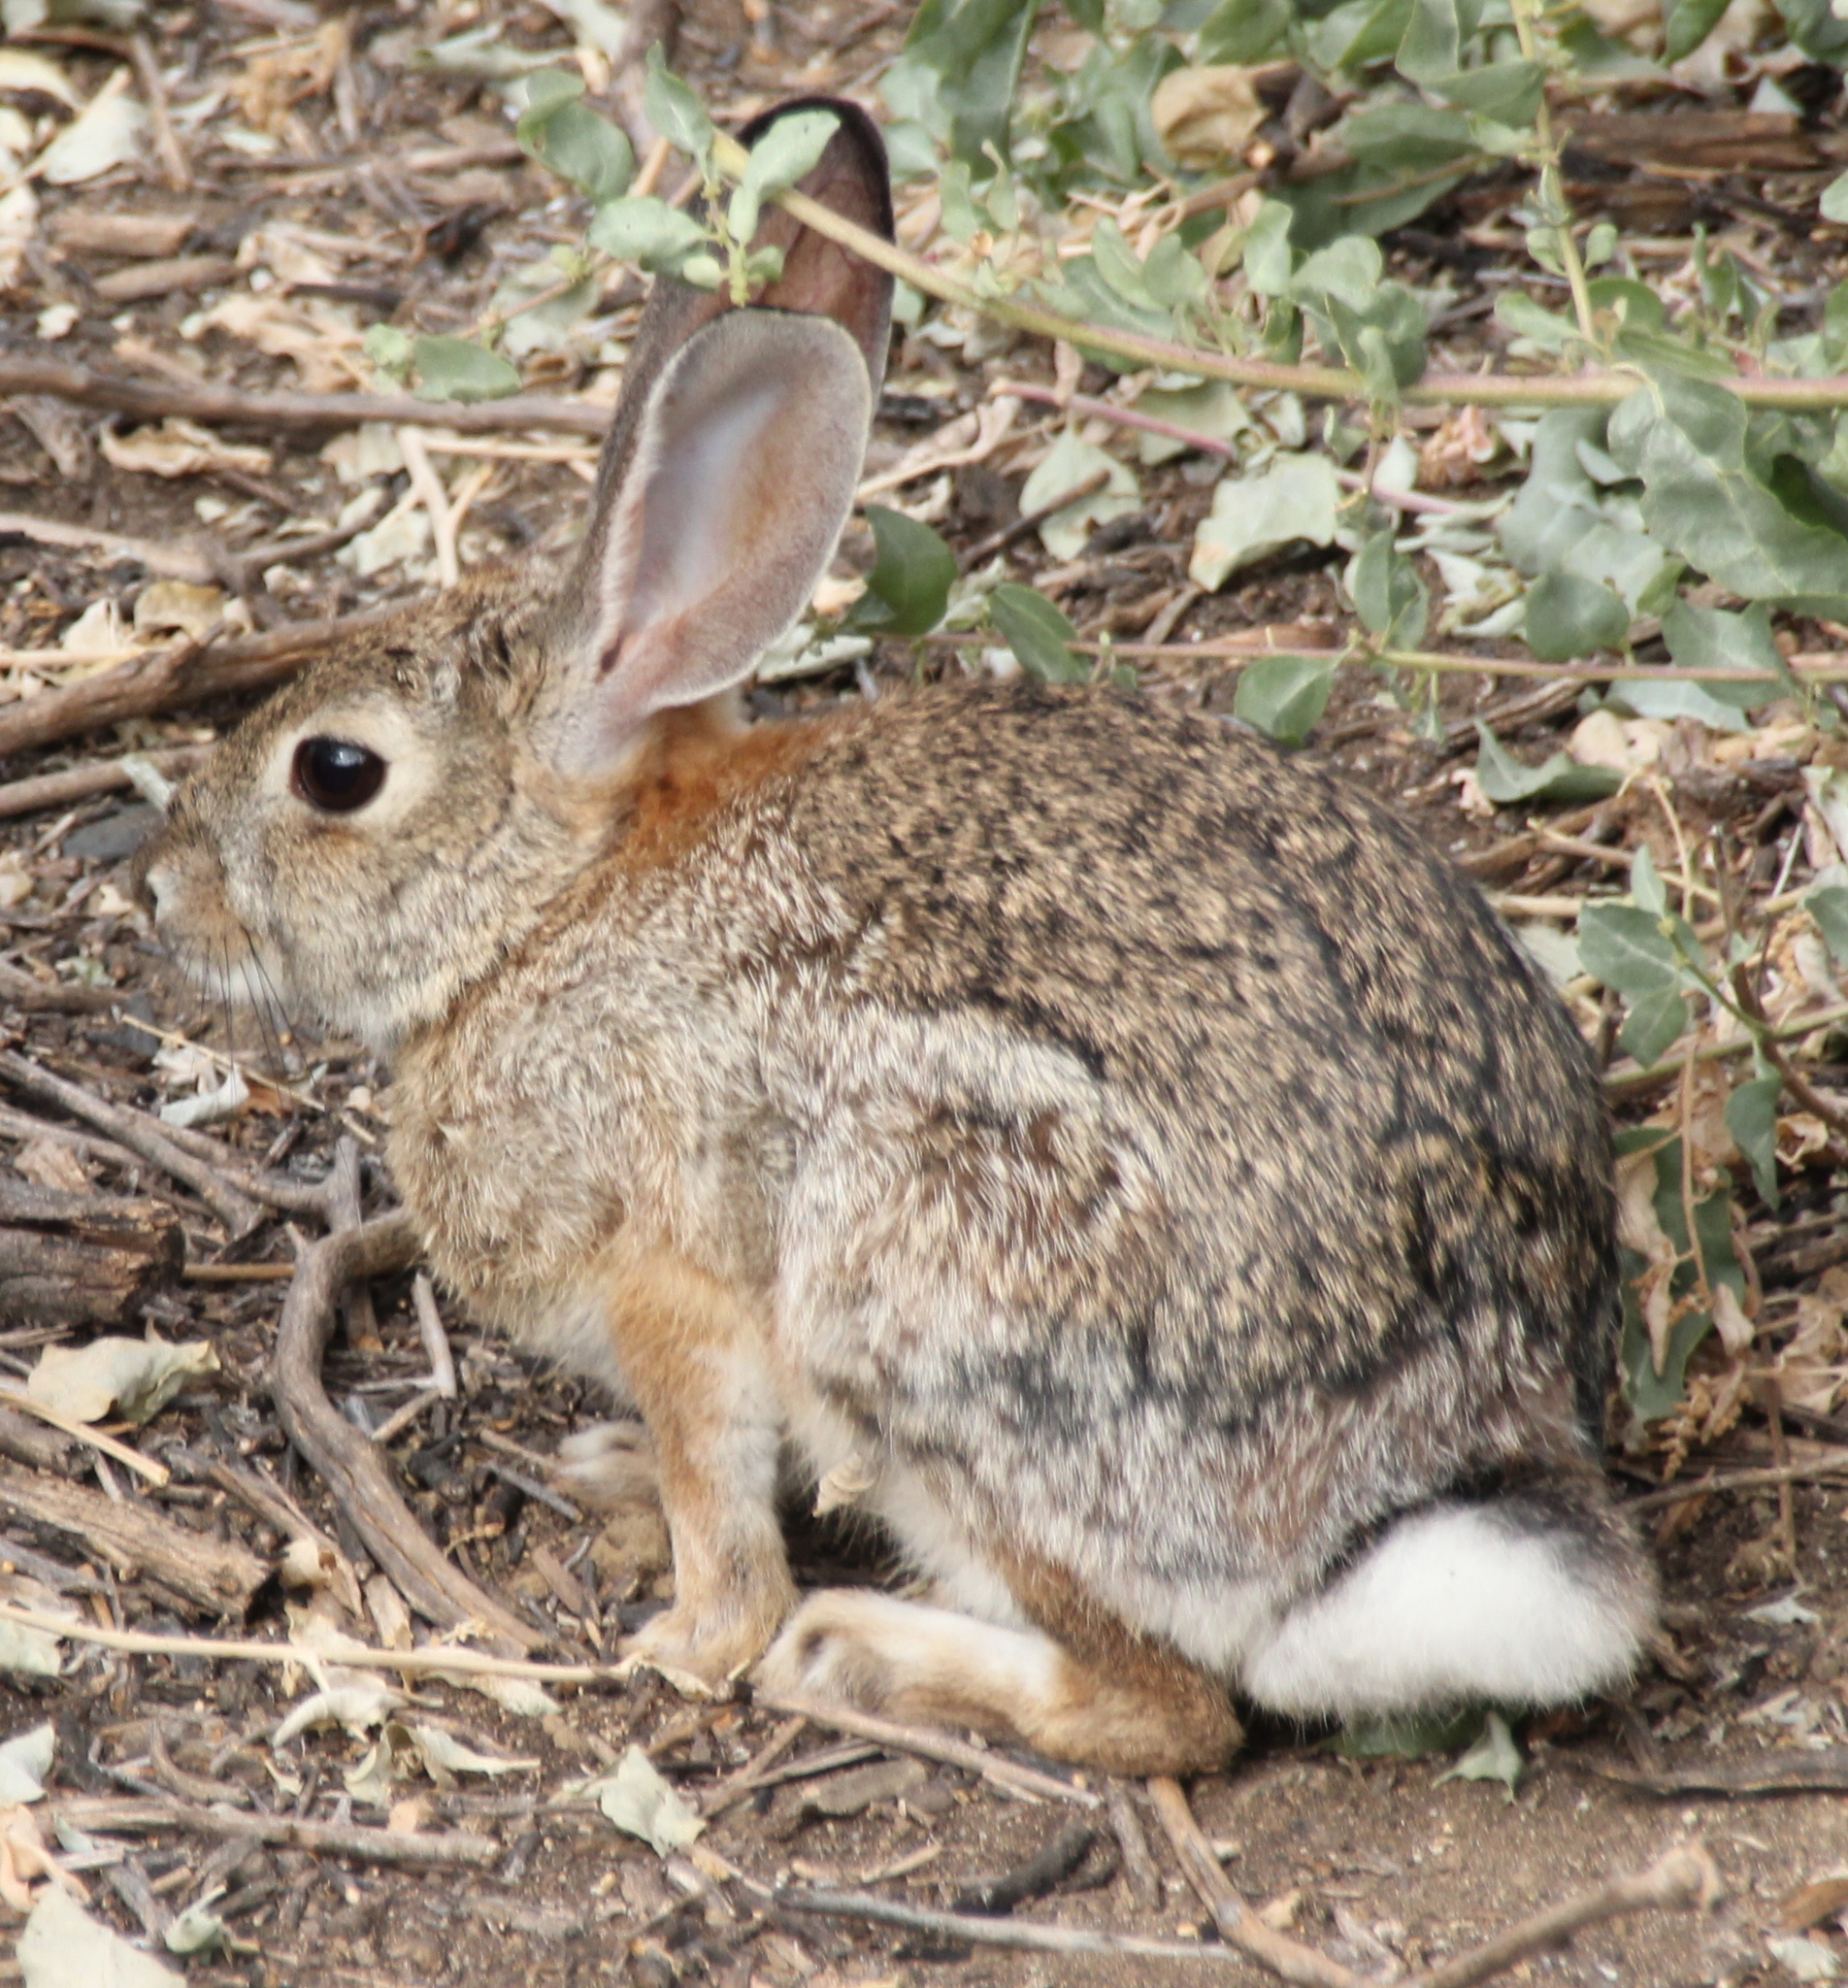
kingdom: Animalia
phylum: Chordata
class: Mammalia
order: Lagomorpha
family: Leporidae
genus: Sylvilagus
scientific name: Sylvilagus audubonii
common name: Desert cottontail
